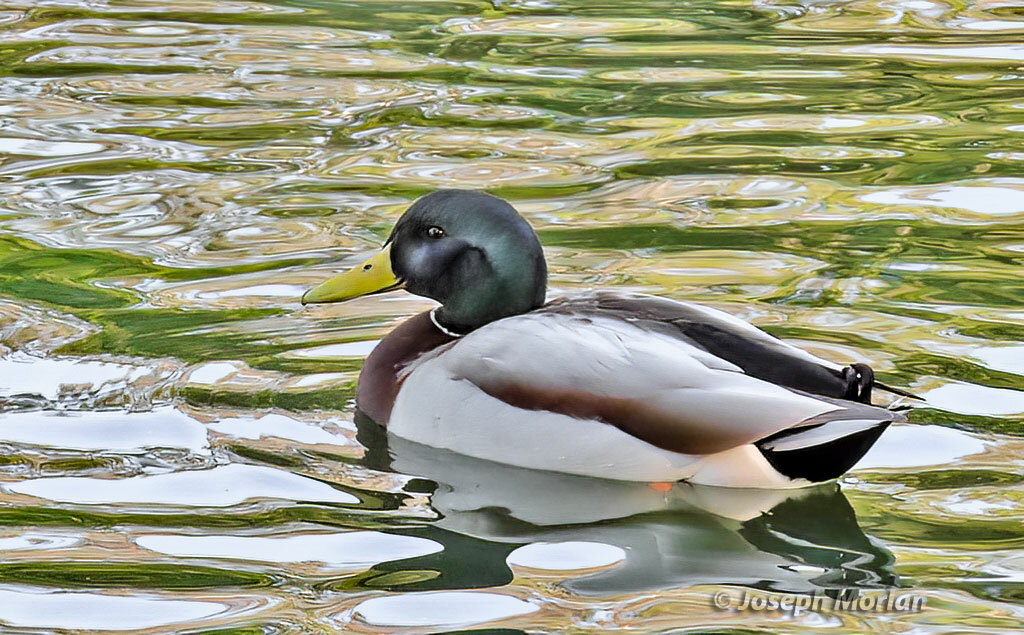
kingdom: Animalia
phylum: Chordata
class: Aves
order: Anseriformes
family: Anatidae
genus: Anas
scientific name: Anas platyrhynchos
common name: Mallard
